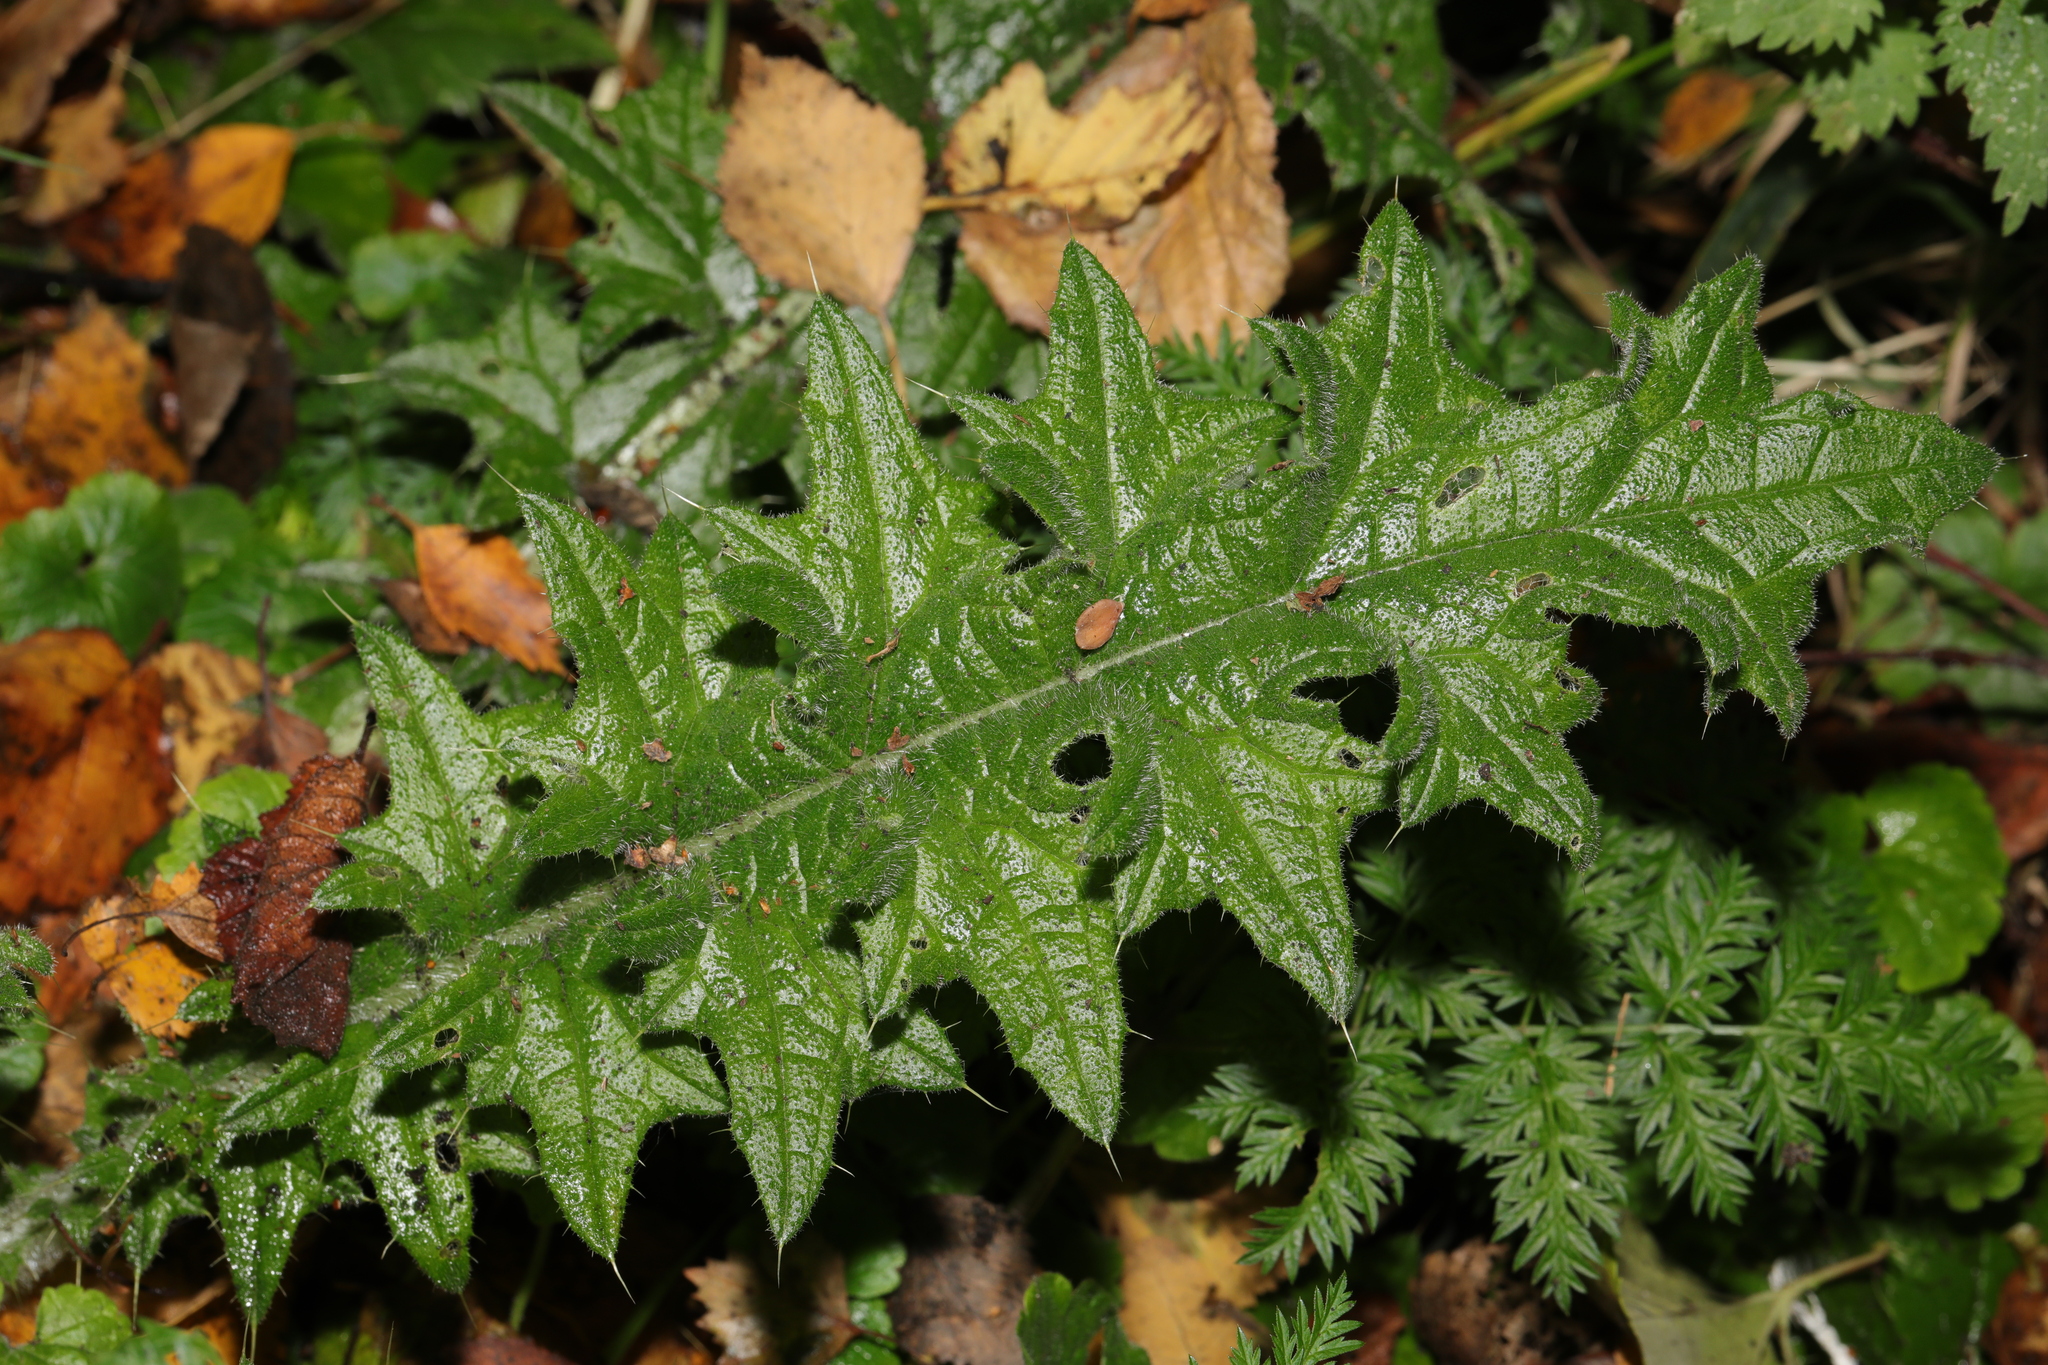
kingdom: Plantae
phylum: Tracheophyta
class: Magnoliopsida
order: Asterales
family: Asteraceae
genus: Cirsium
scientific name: Cirsium vulgare
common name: Bull thistle
